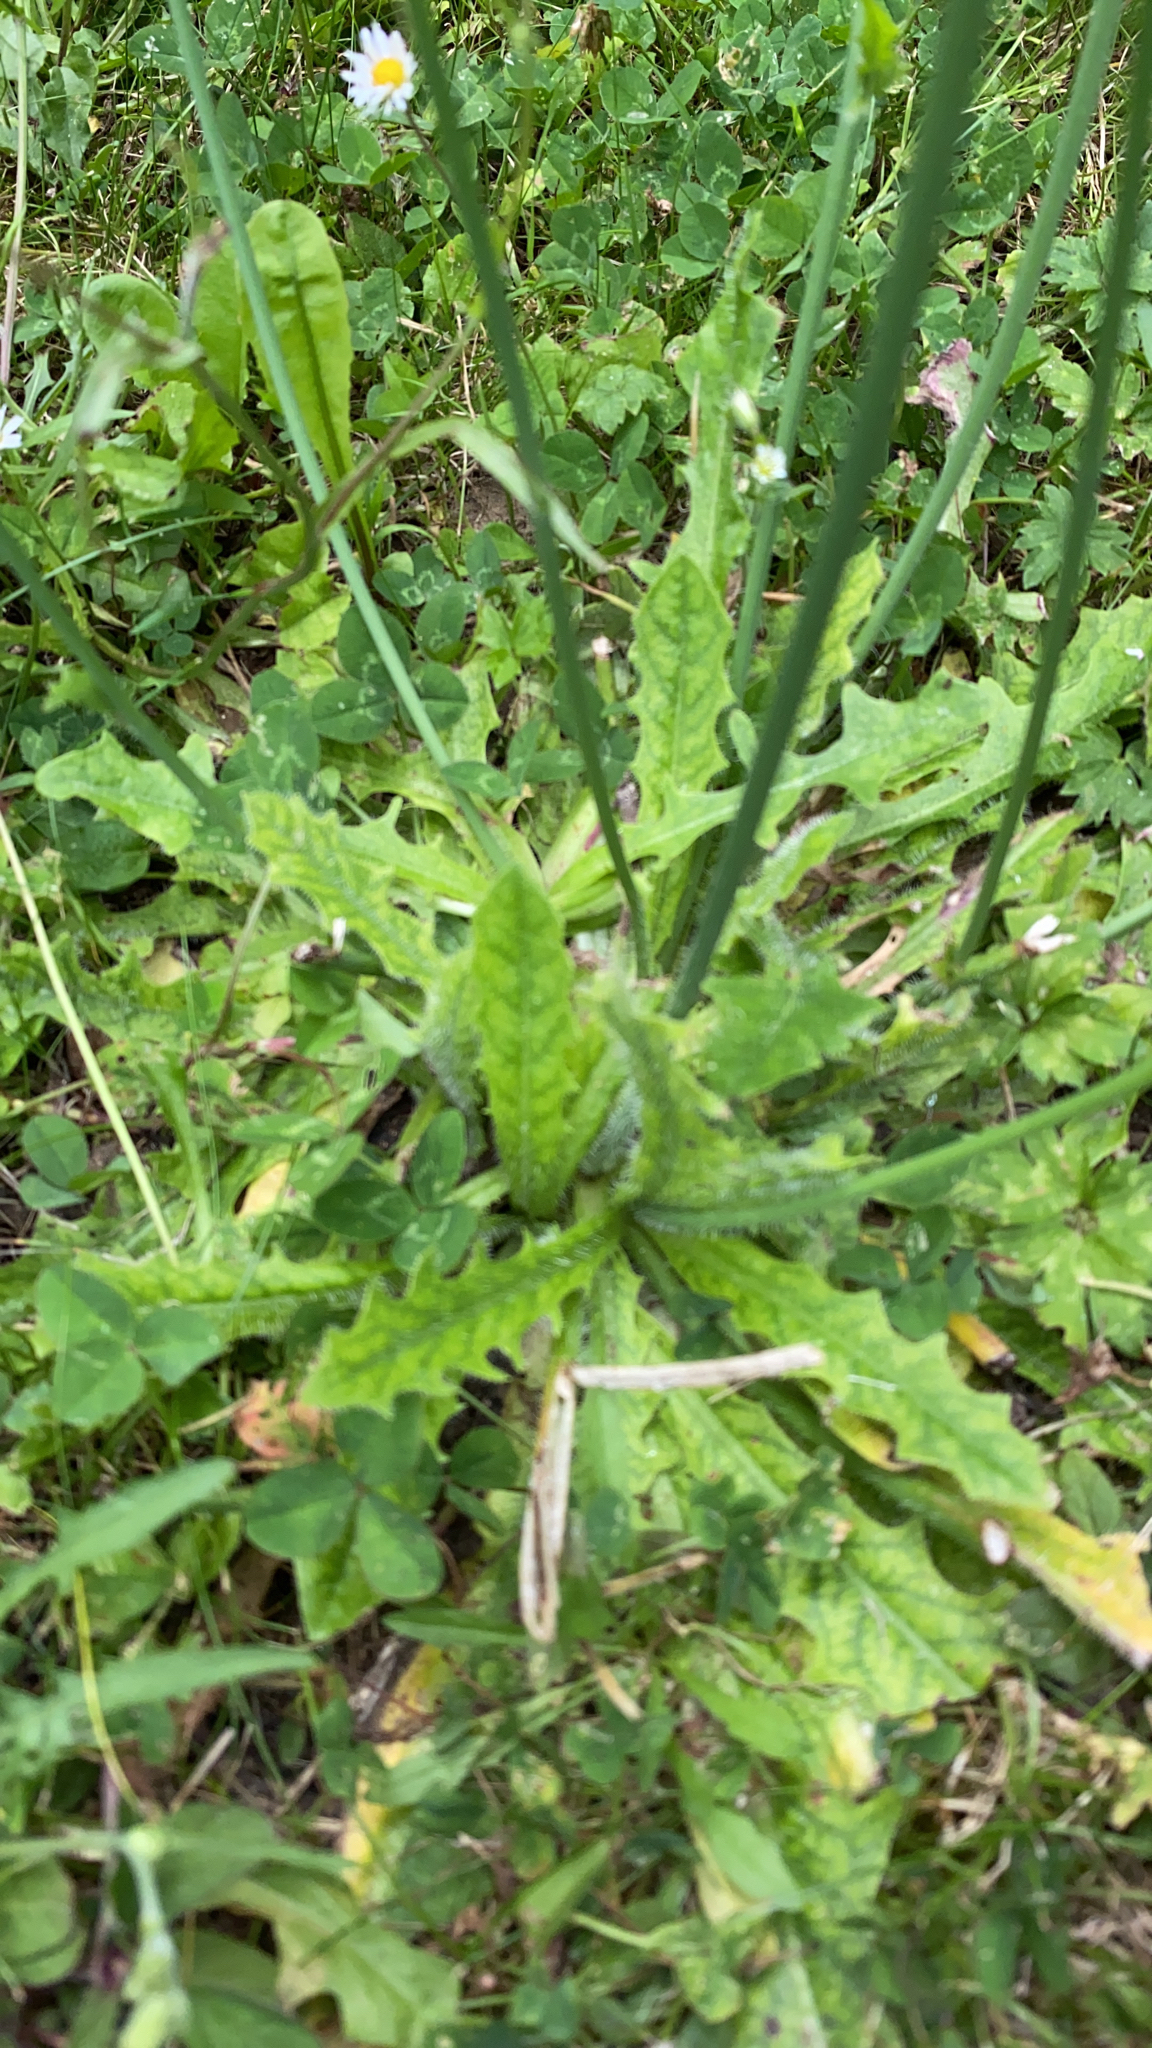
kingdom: Plantae
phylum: Tracheophyta
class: Magnoliopsida
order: Asterales
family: Asteraceae
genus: Hypochaeris
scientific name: Hypochaeris radicata
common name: Flatweed
